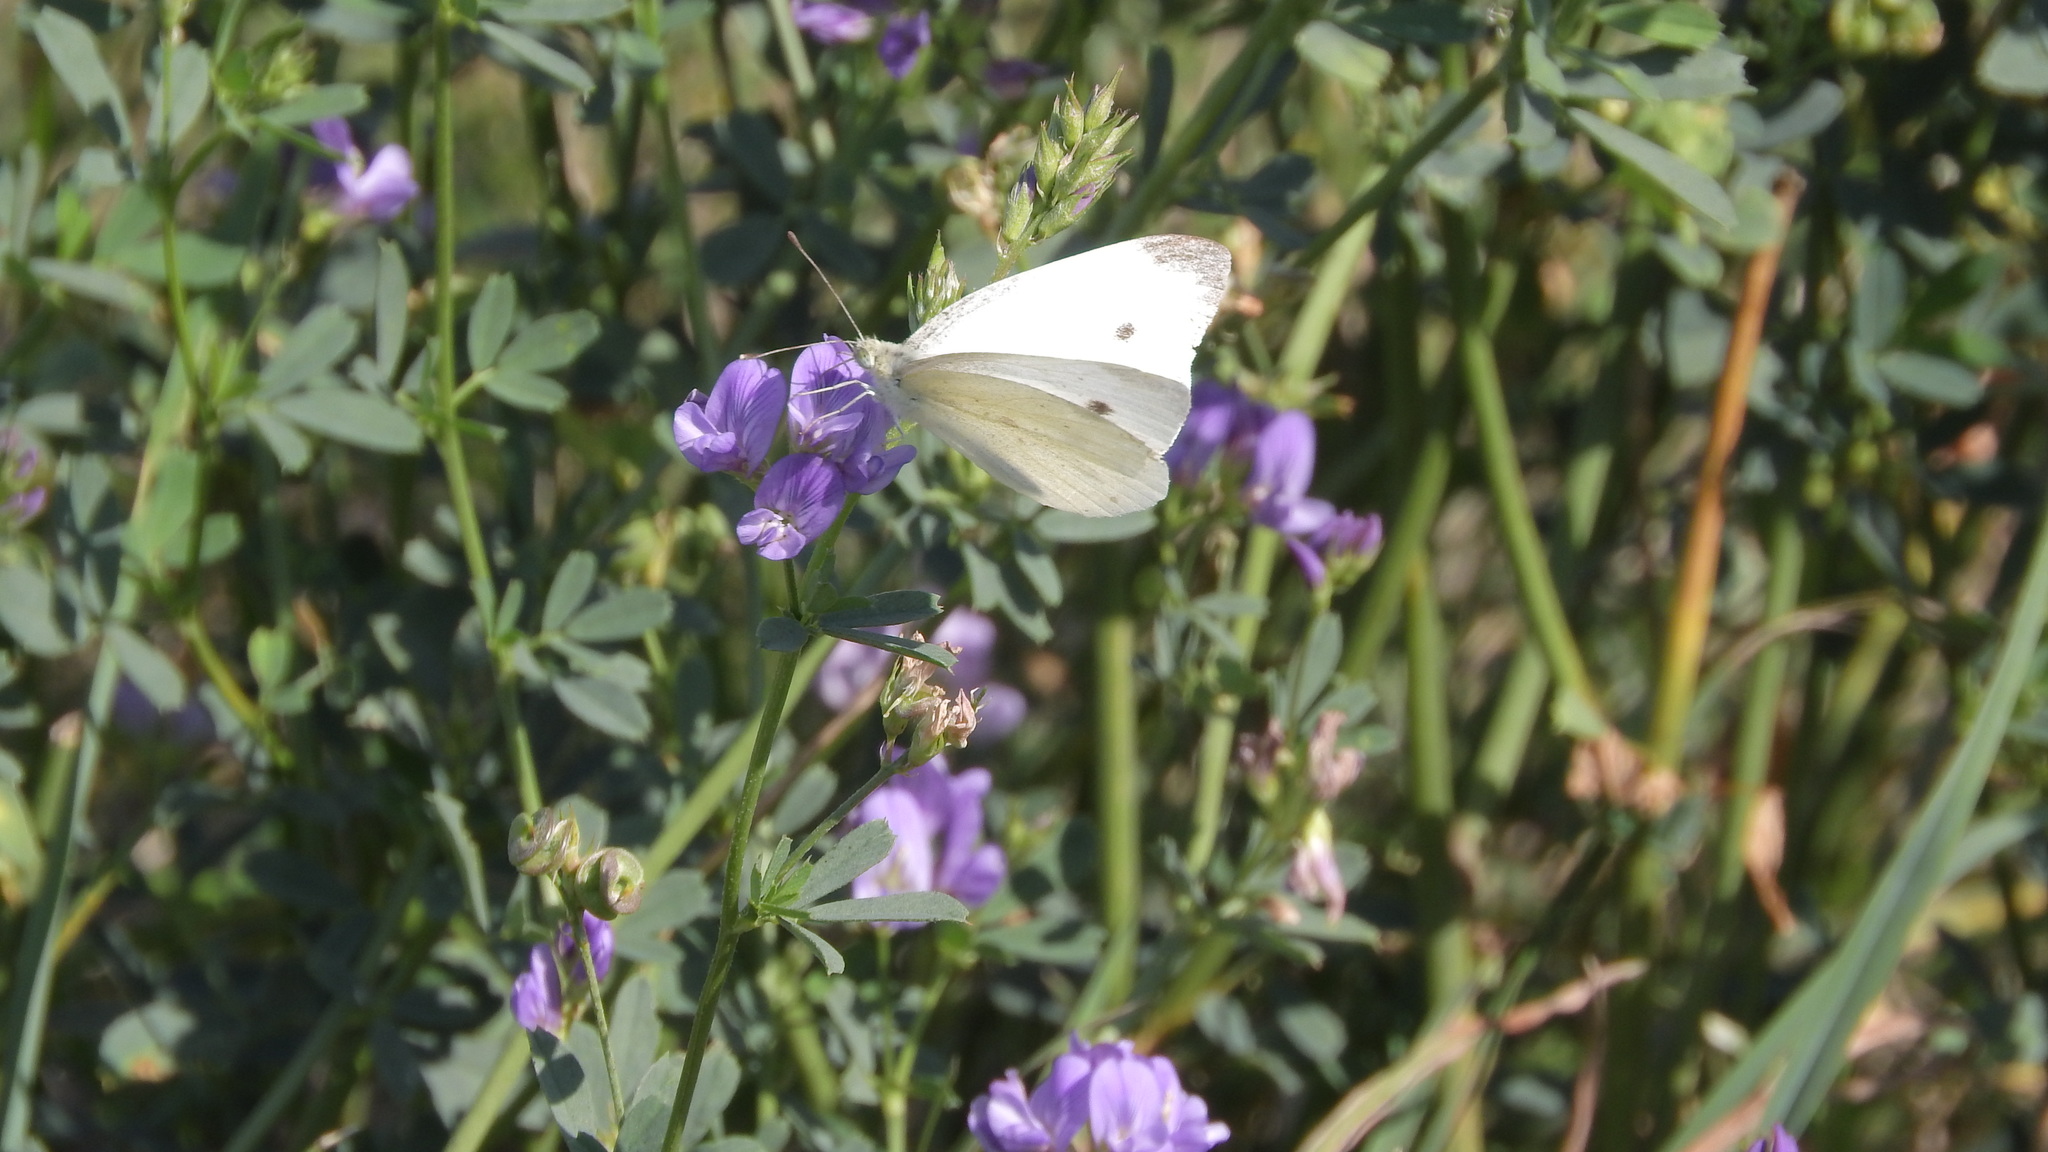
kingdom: Animalia
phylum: Arthropoda
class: Insecta
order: Lepidoptera
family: Pieridae
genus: Pieris
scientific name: Pieris rapae
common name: Small white
